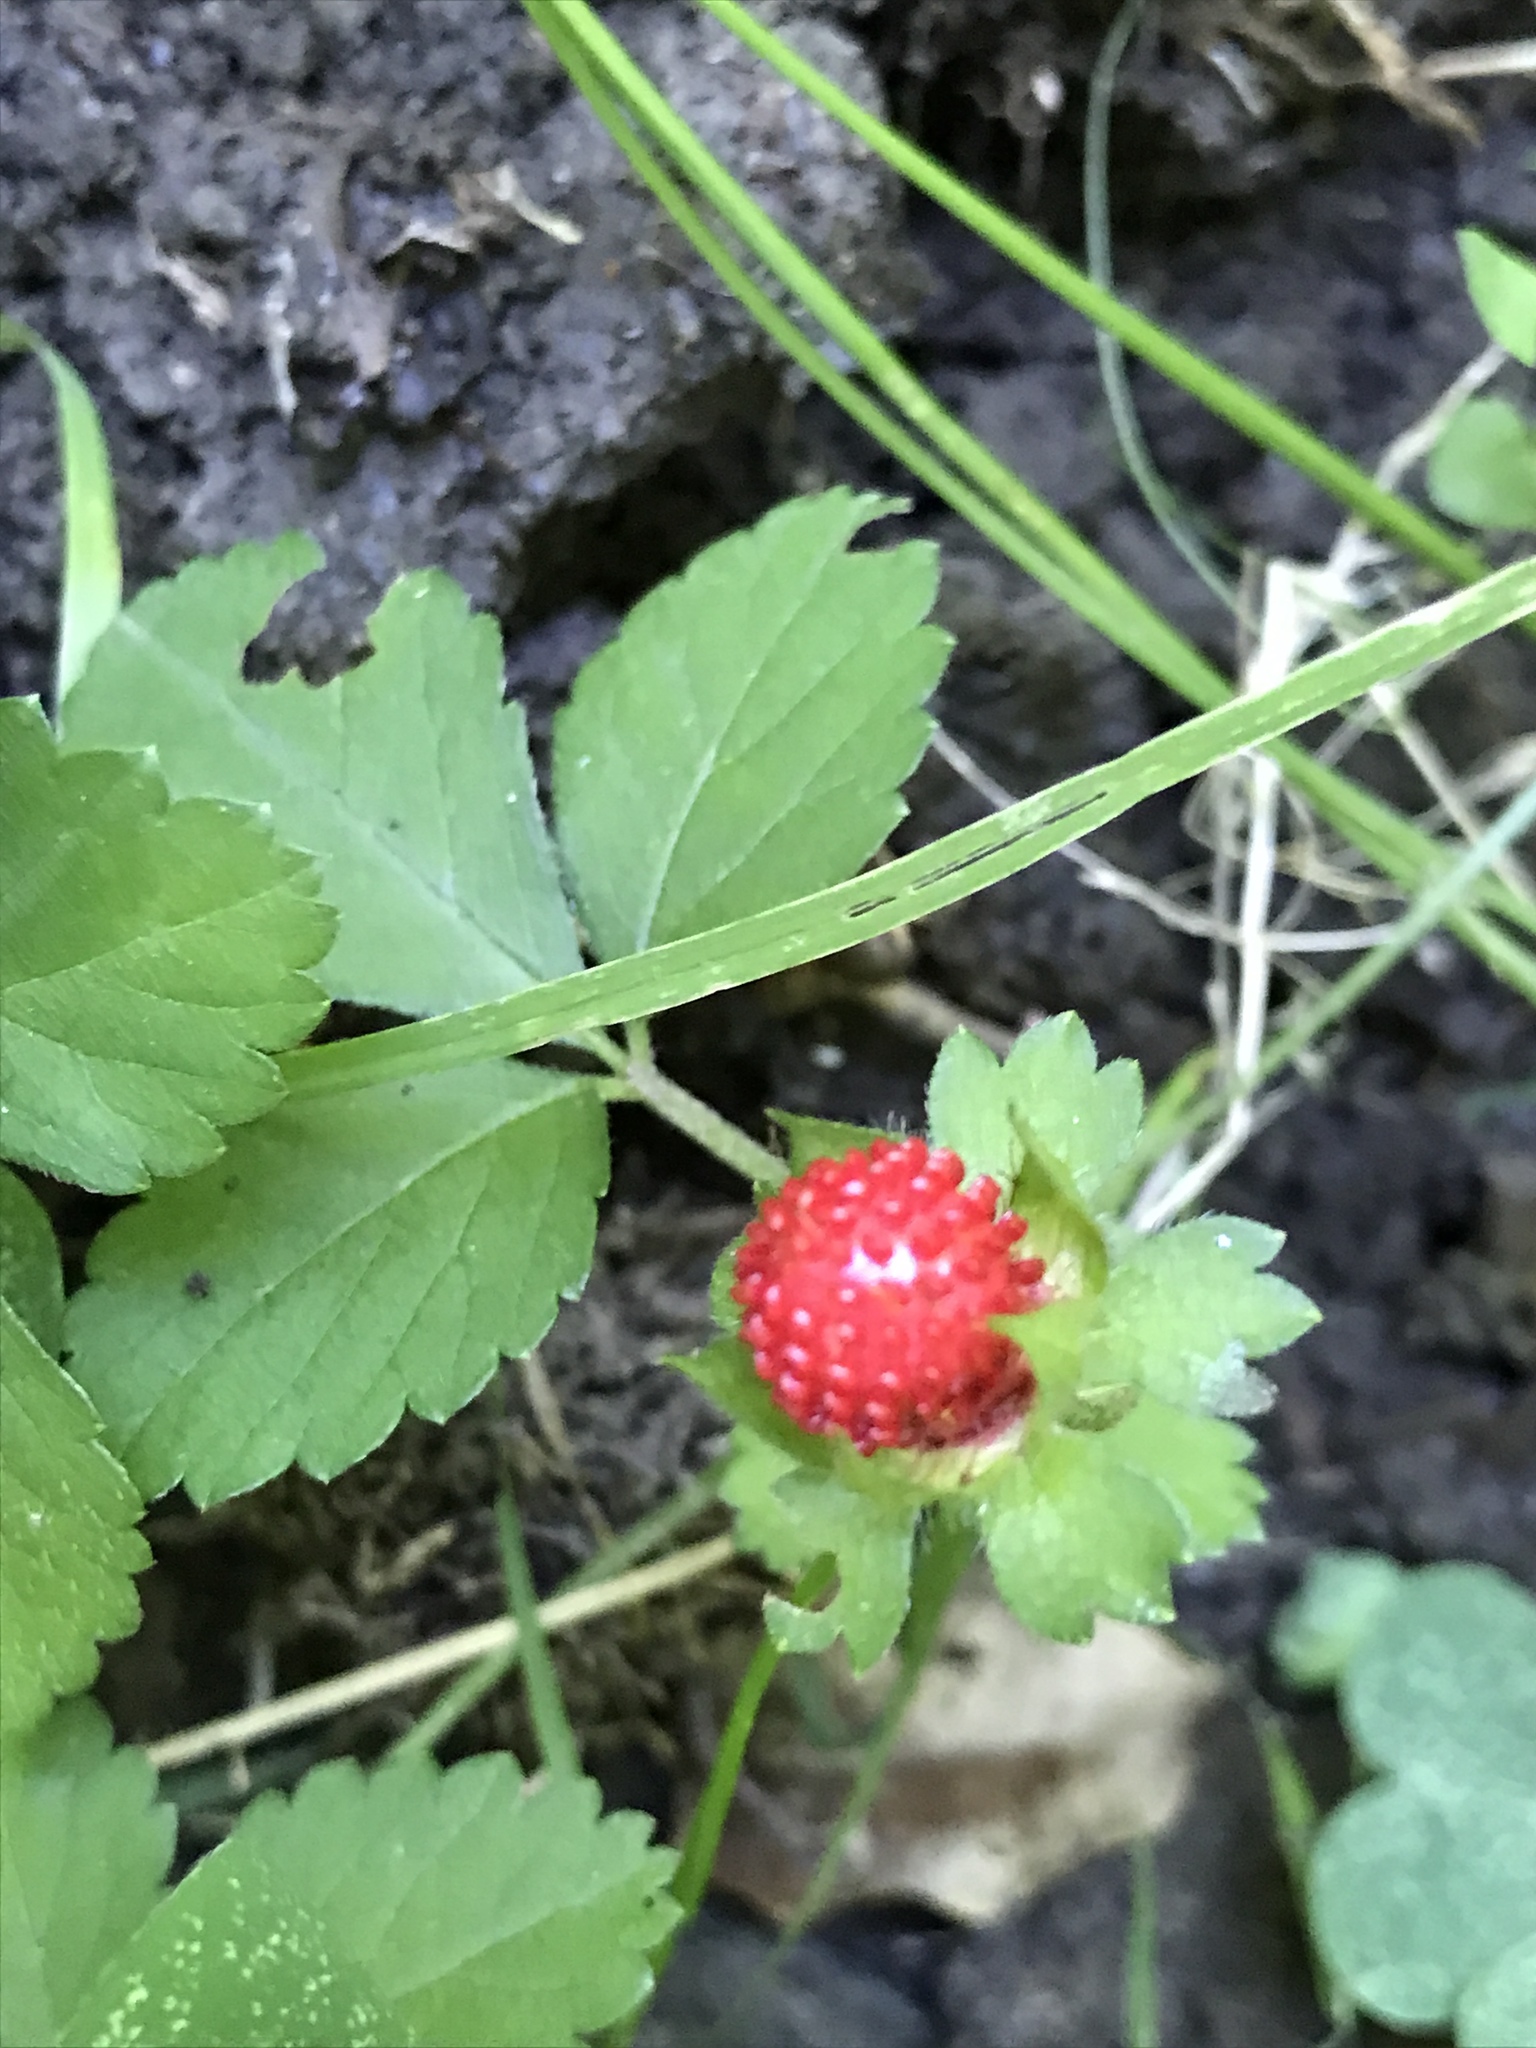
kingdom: Plantae
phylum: Tracheophyta
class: Magnoliopsida
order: Rosales
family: Rosaceae
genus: Potentilla
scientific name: Potentilla indica
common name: Yellow-flowered strawberry
